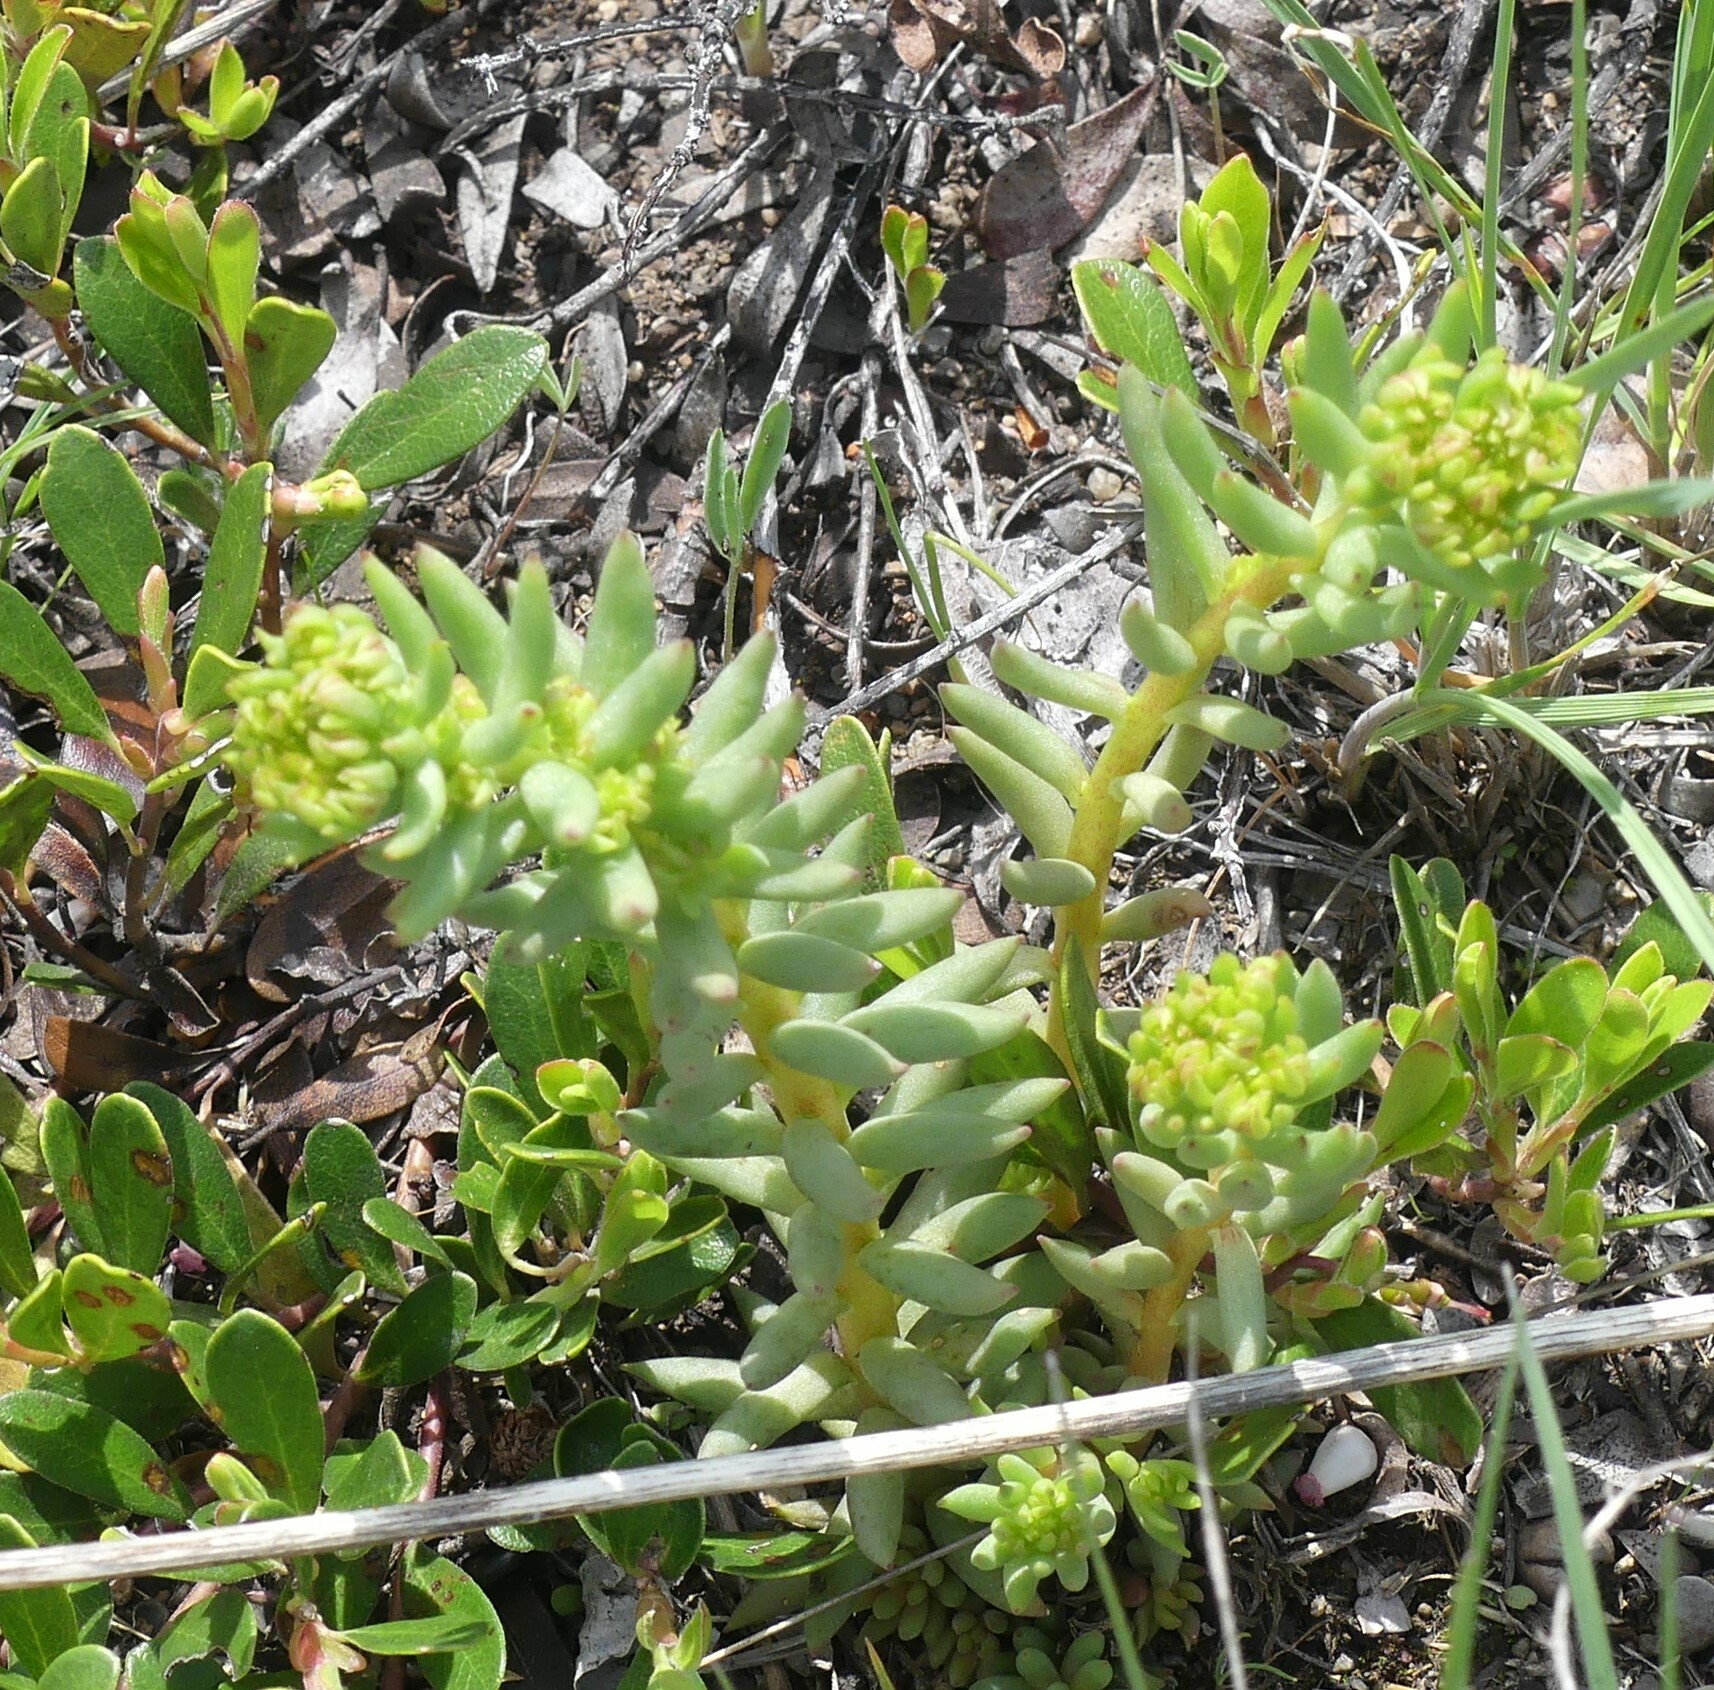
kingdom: Plantae
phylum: Tracheophyta
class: Magnoliopsida
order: Saxifragales
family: Crassulaceae
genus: Sedum
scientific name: Sedum lanceolatum
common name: Common stonecrop
